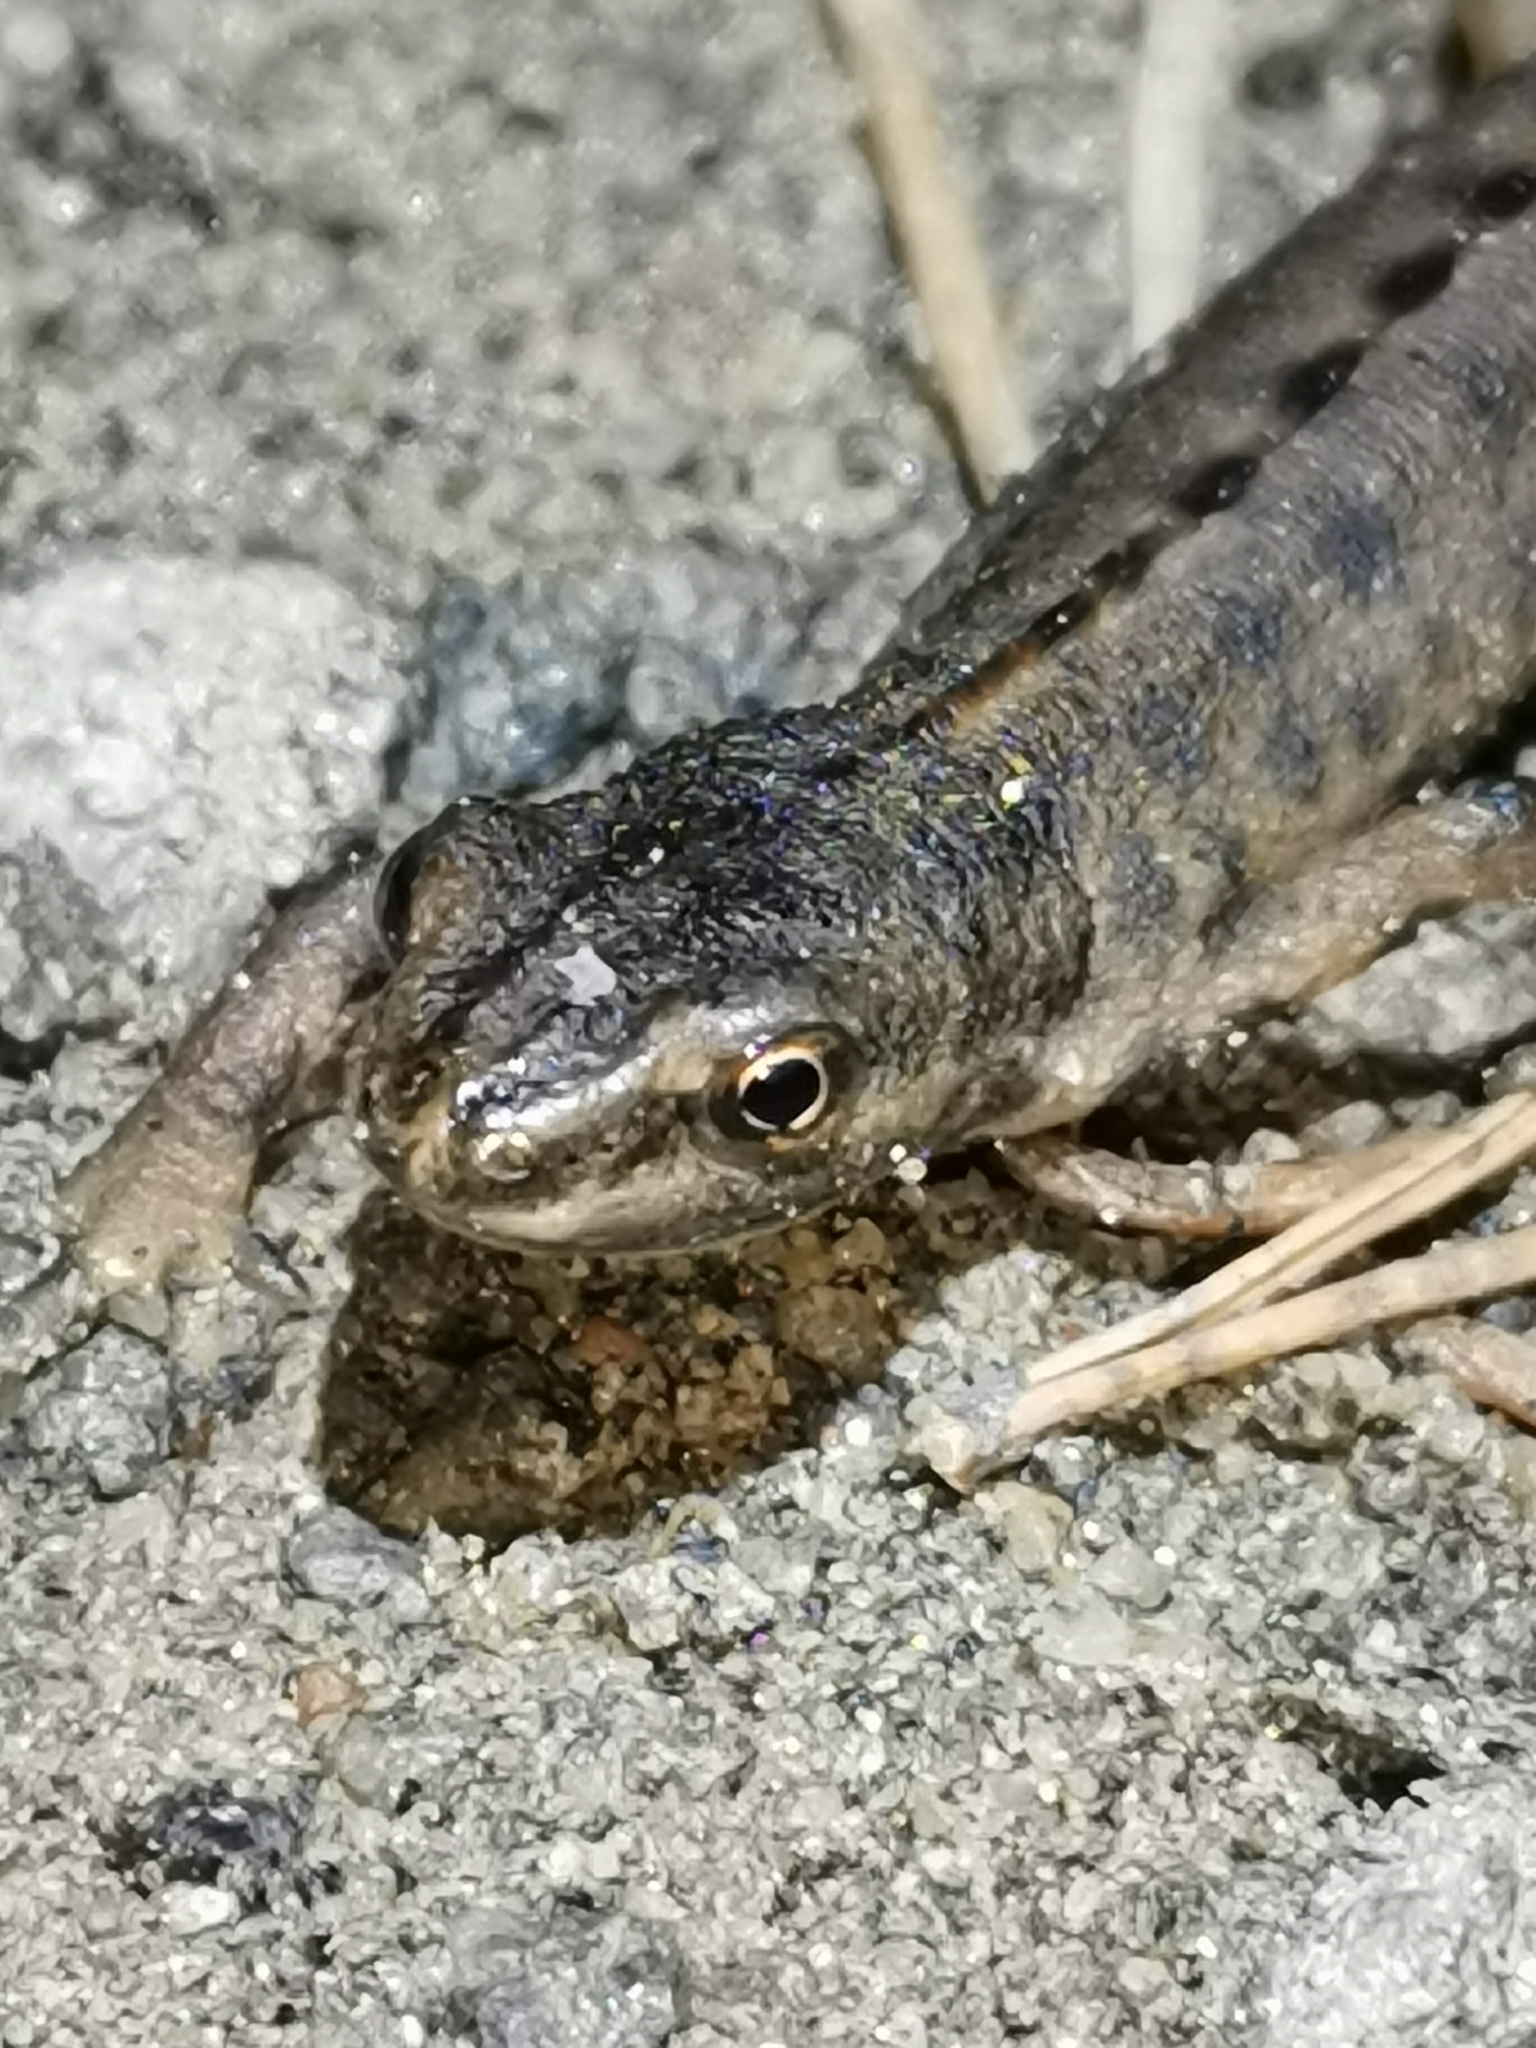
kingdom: Animalia
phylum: Chordata
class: Amphibia
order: Caudata
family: Salamandridae
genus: Lissotriton
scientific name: Lissotriton vulgaris
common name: Smooth newt
